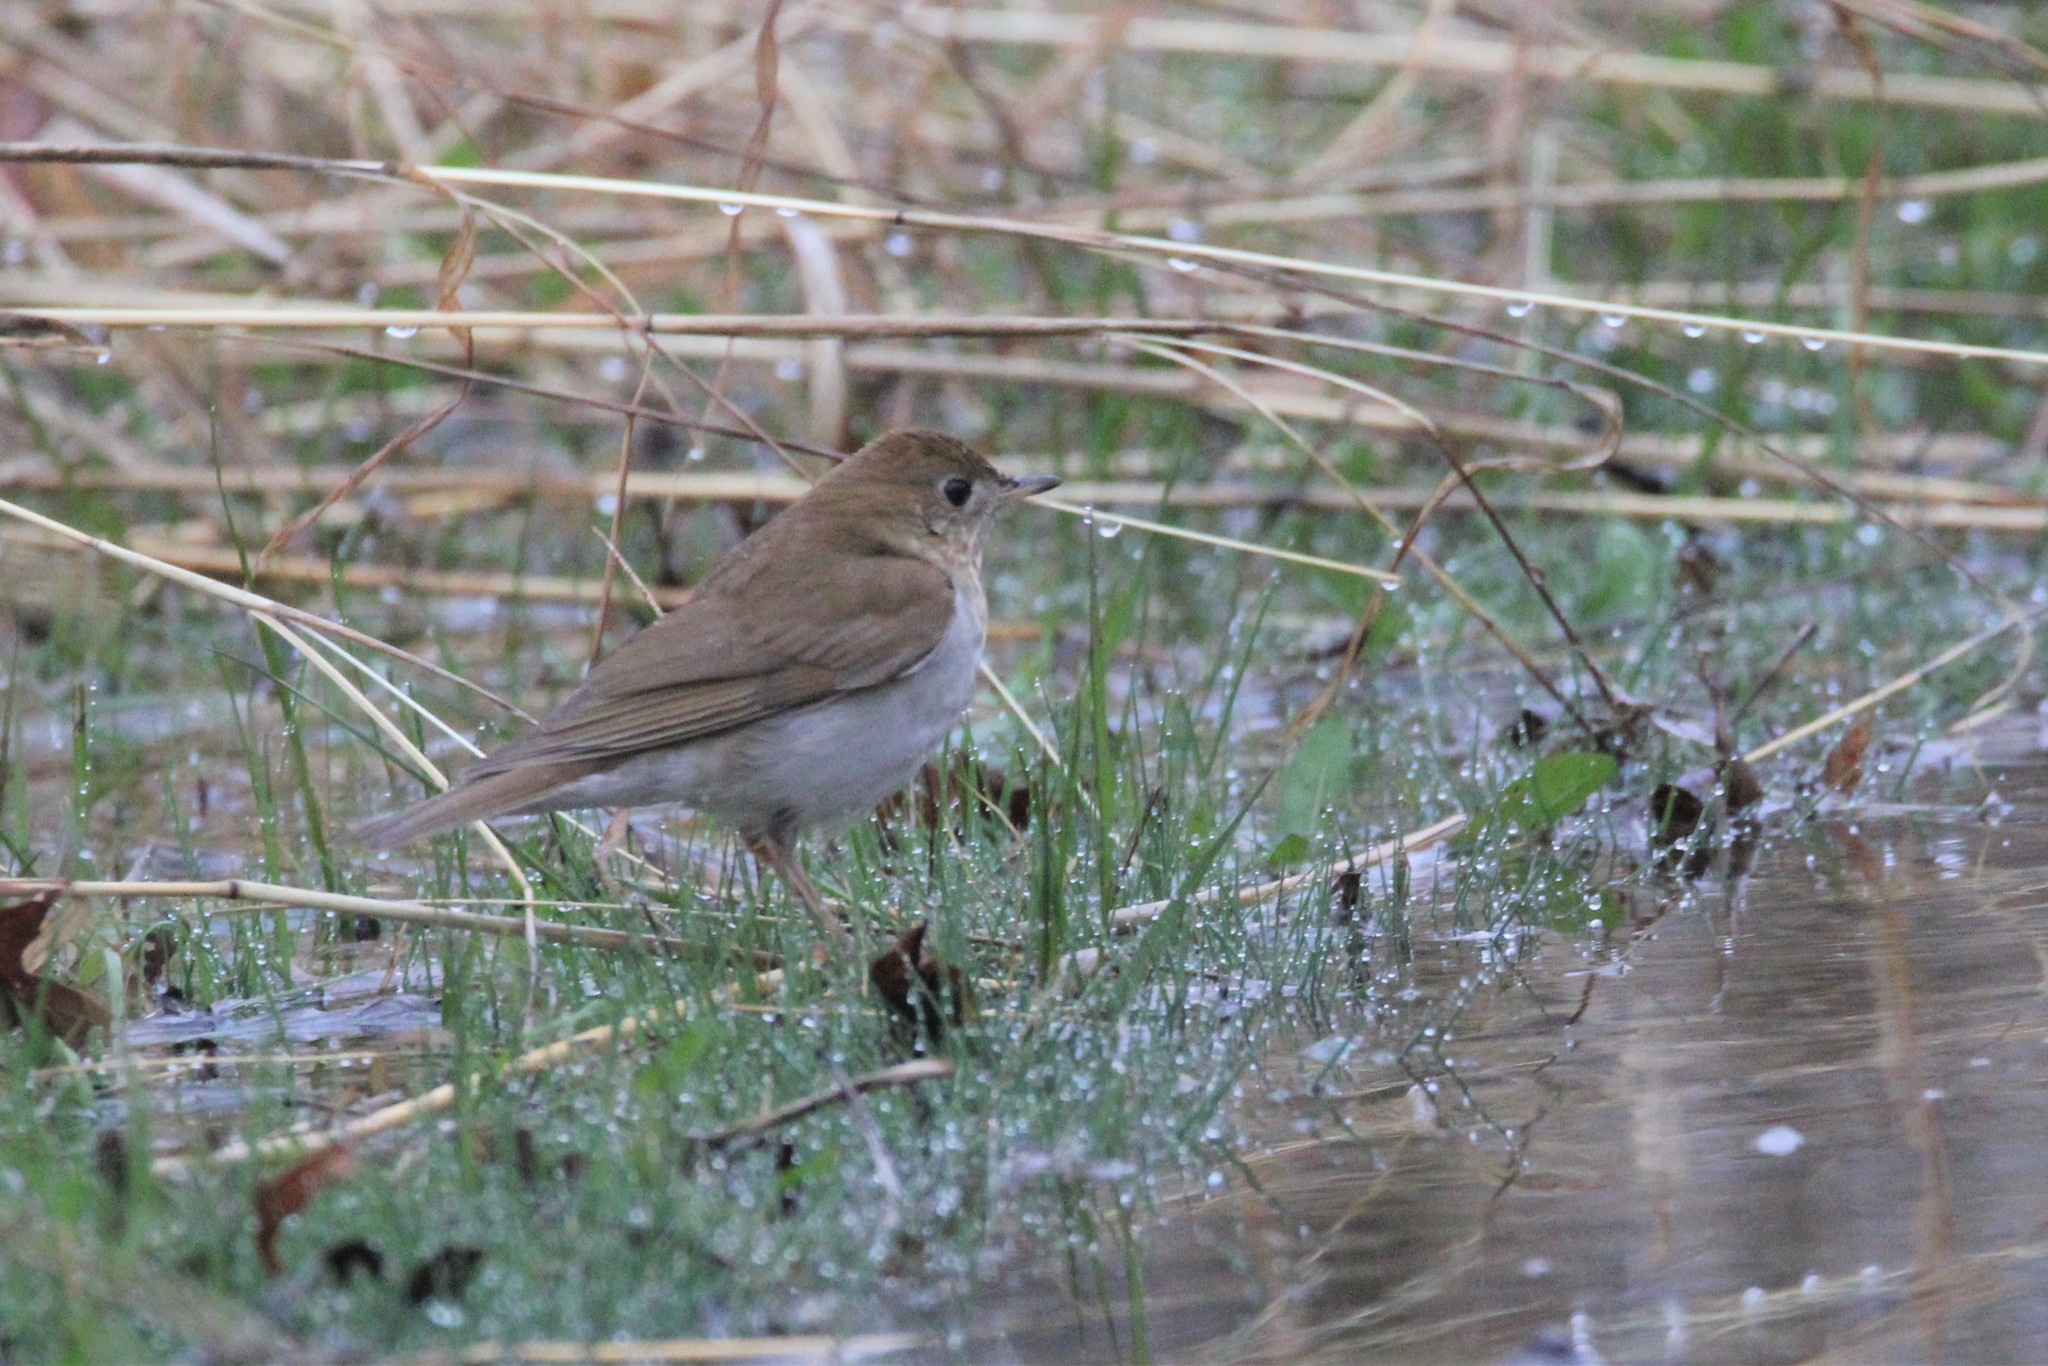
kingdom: Animalia
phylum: Chordata
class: Aves
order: Passeriformes
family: Turdidae
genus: Catharus
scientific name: Catharus fuscescens
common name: Veery
